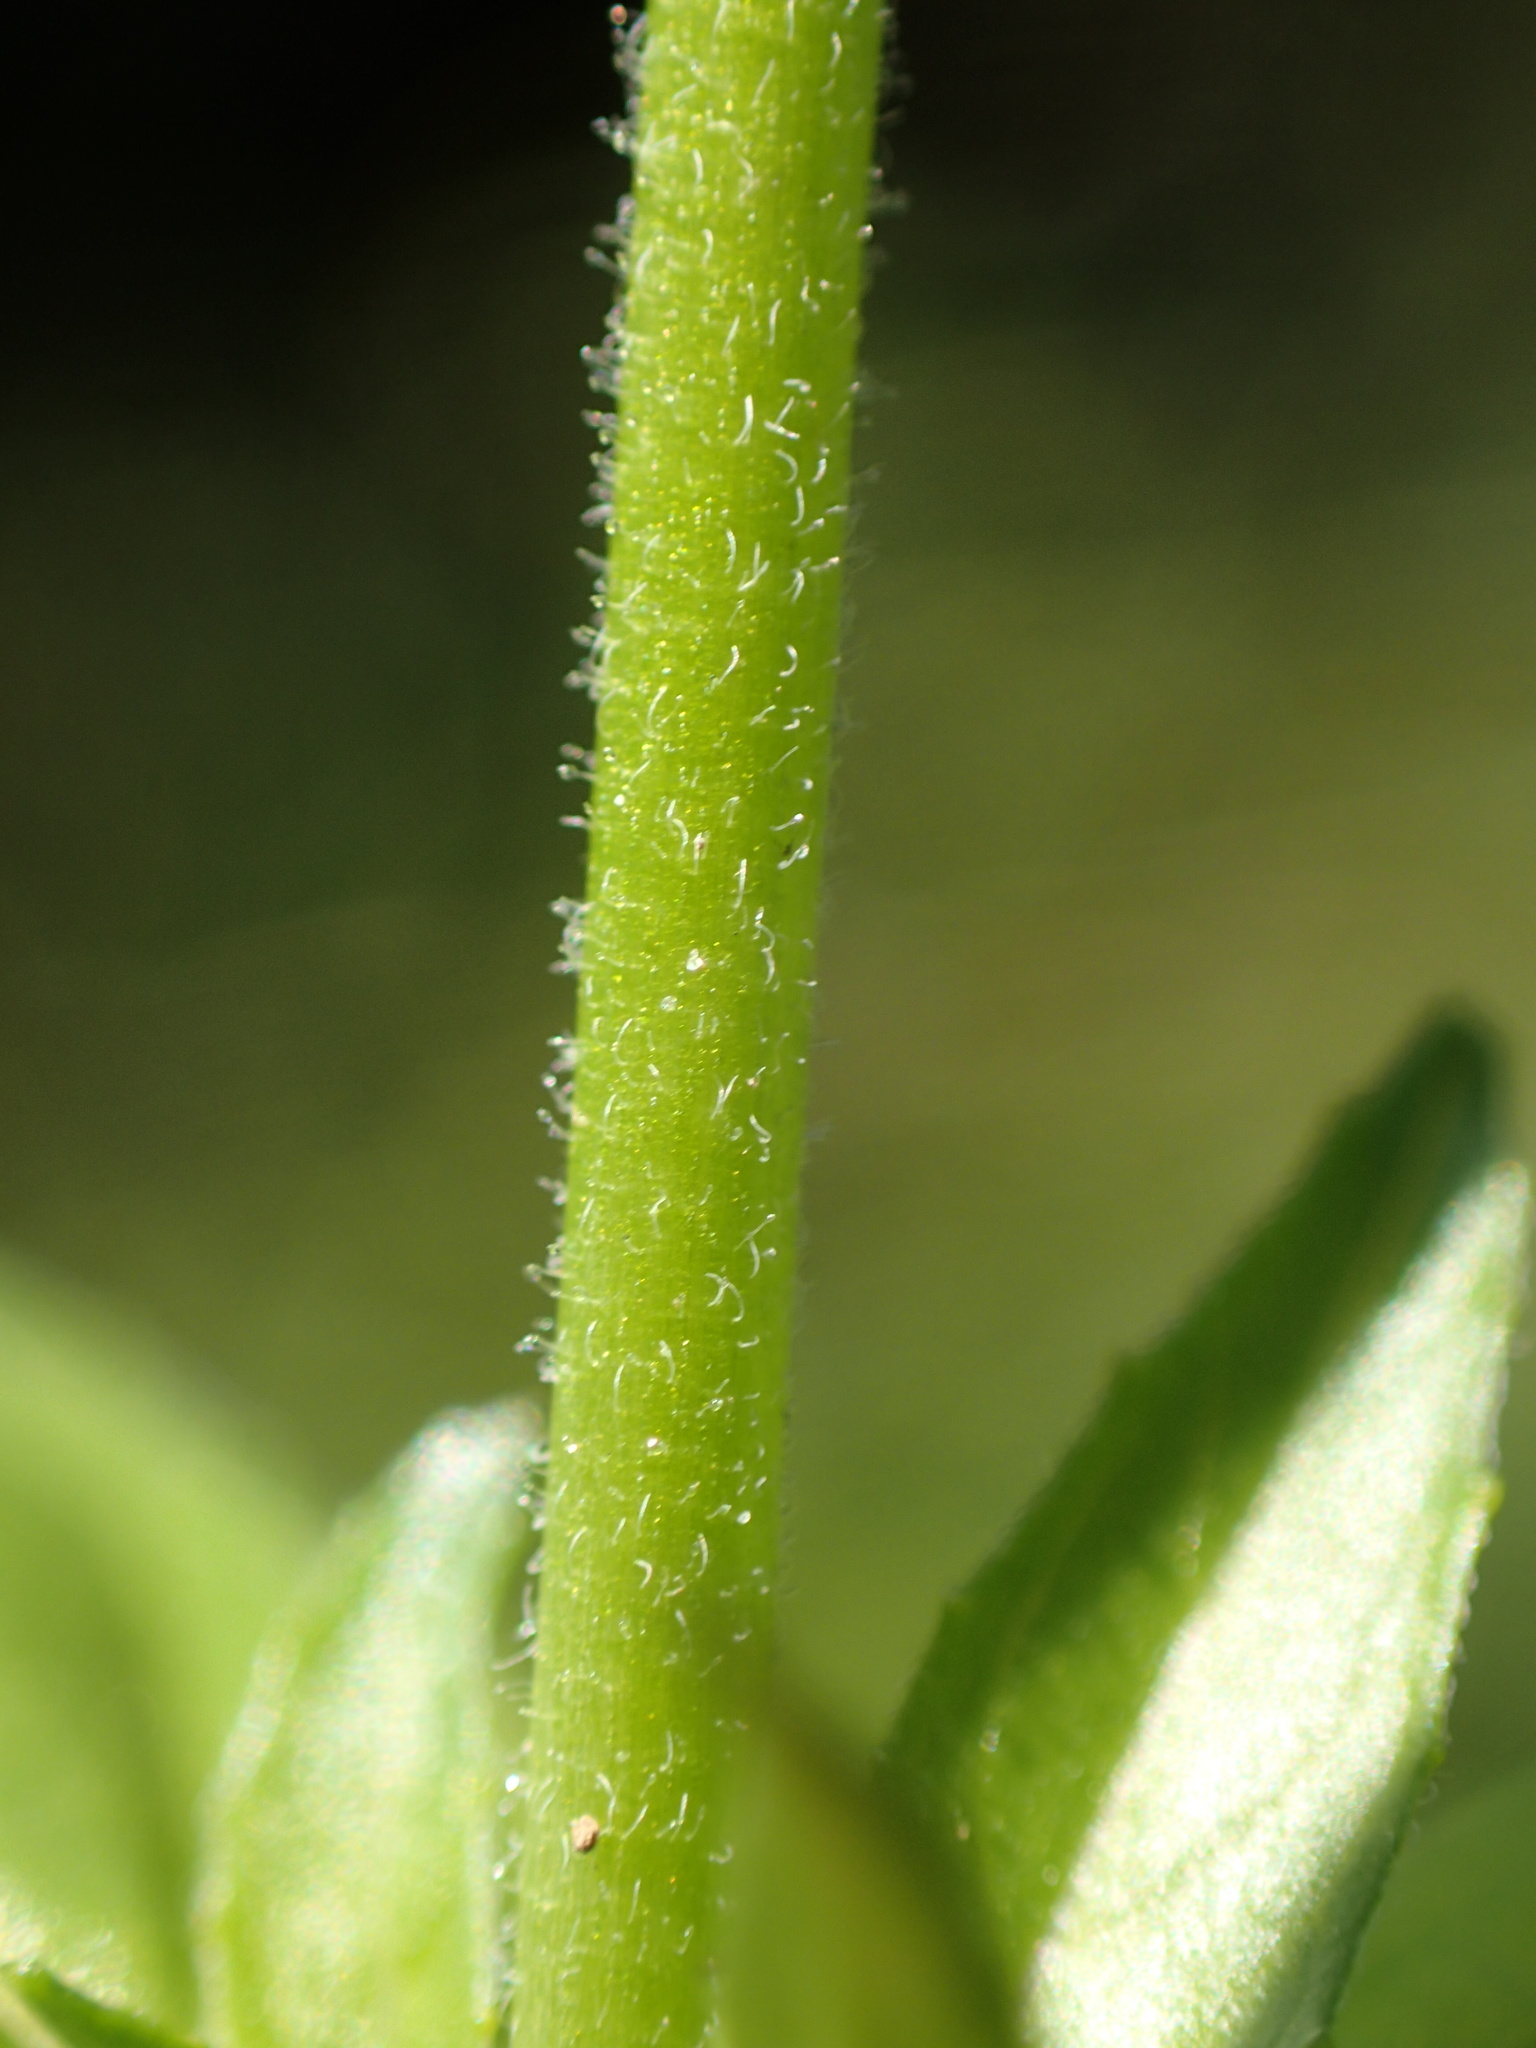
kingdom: Plantae
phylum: Tracheophyta
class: Magnoliopsida
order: Myrtales
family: Onagraceae
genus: Epilobium
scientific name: Epilobium ciliatum
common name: American willowherb
